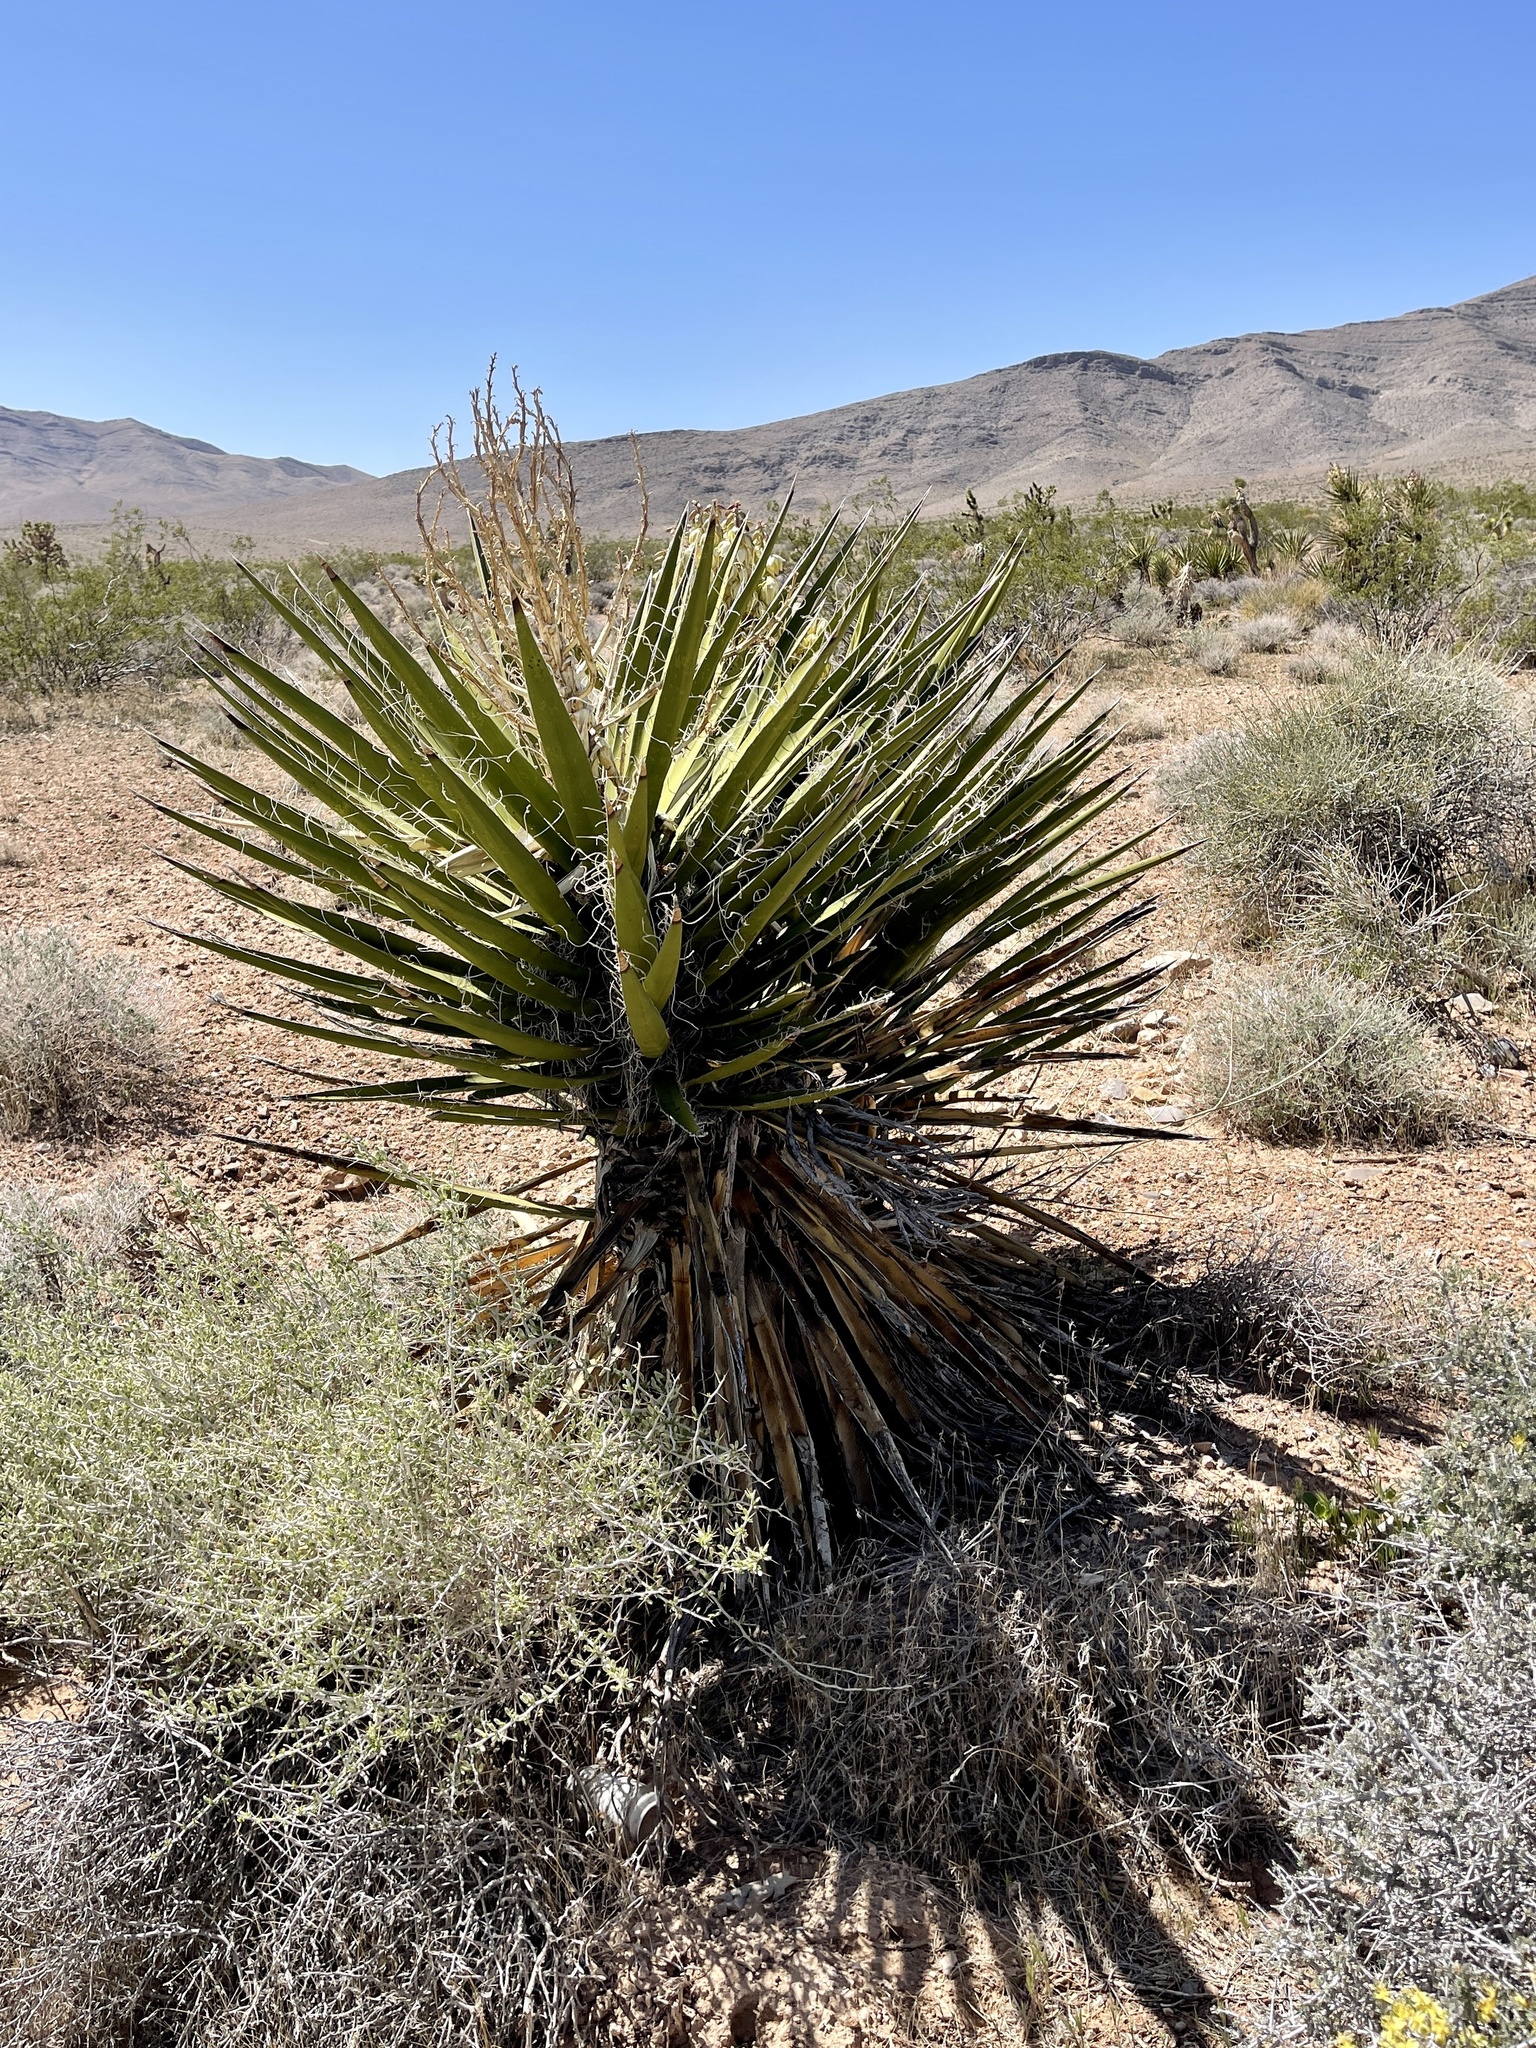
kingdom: Plantae
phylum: Tracheophyta
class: Liliopsida
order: Asparagales
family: Asparagaceae
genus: Yucca
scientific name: Yucca schidigera
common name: Mojave yucca
